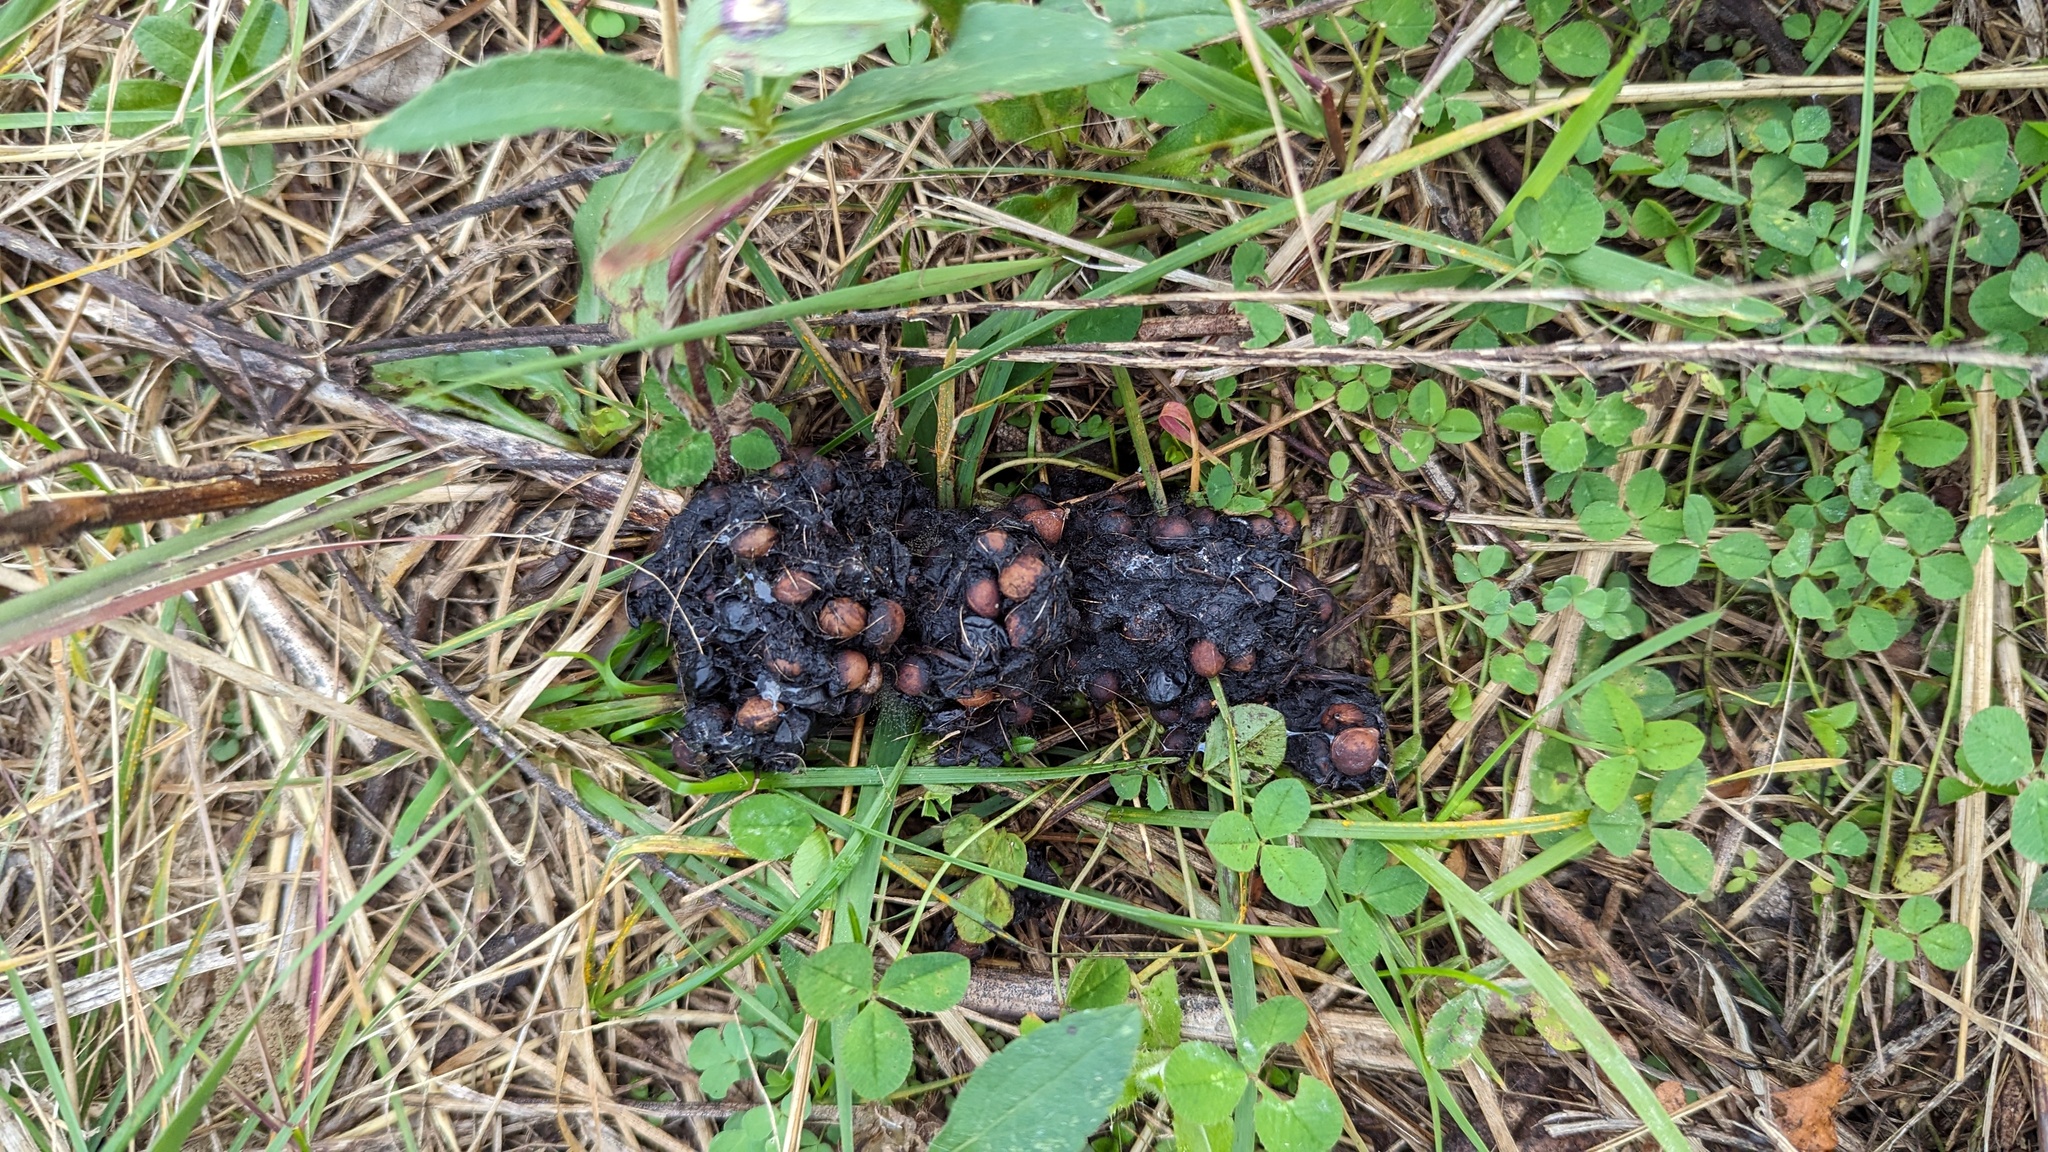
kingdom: Animalia
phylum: Chordata
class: Mammalia
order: Carnivora
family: Procyonidae
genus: Procyon
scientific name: Procyon lotor
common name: Raccoon
